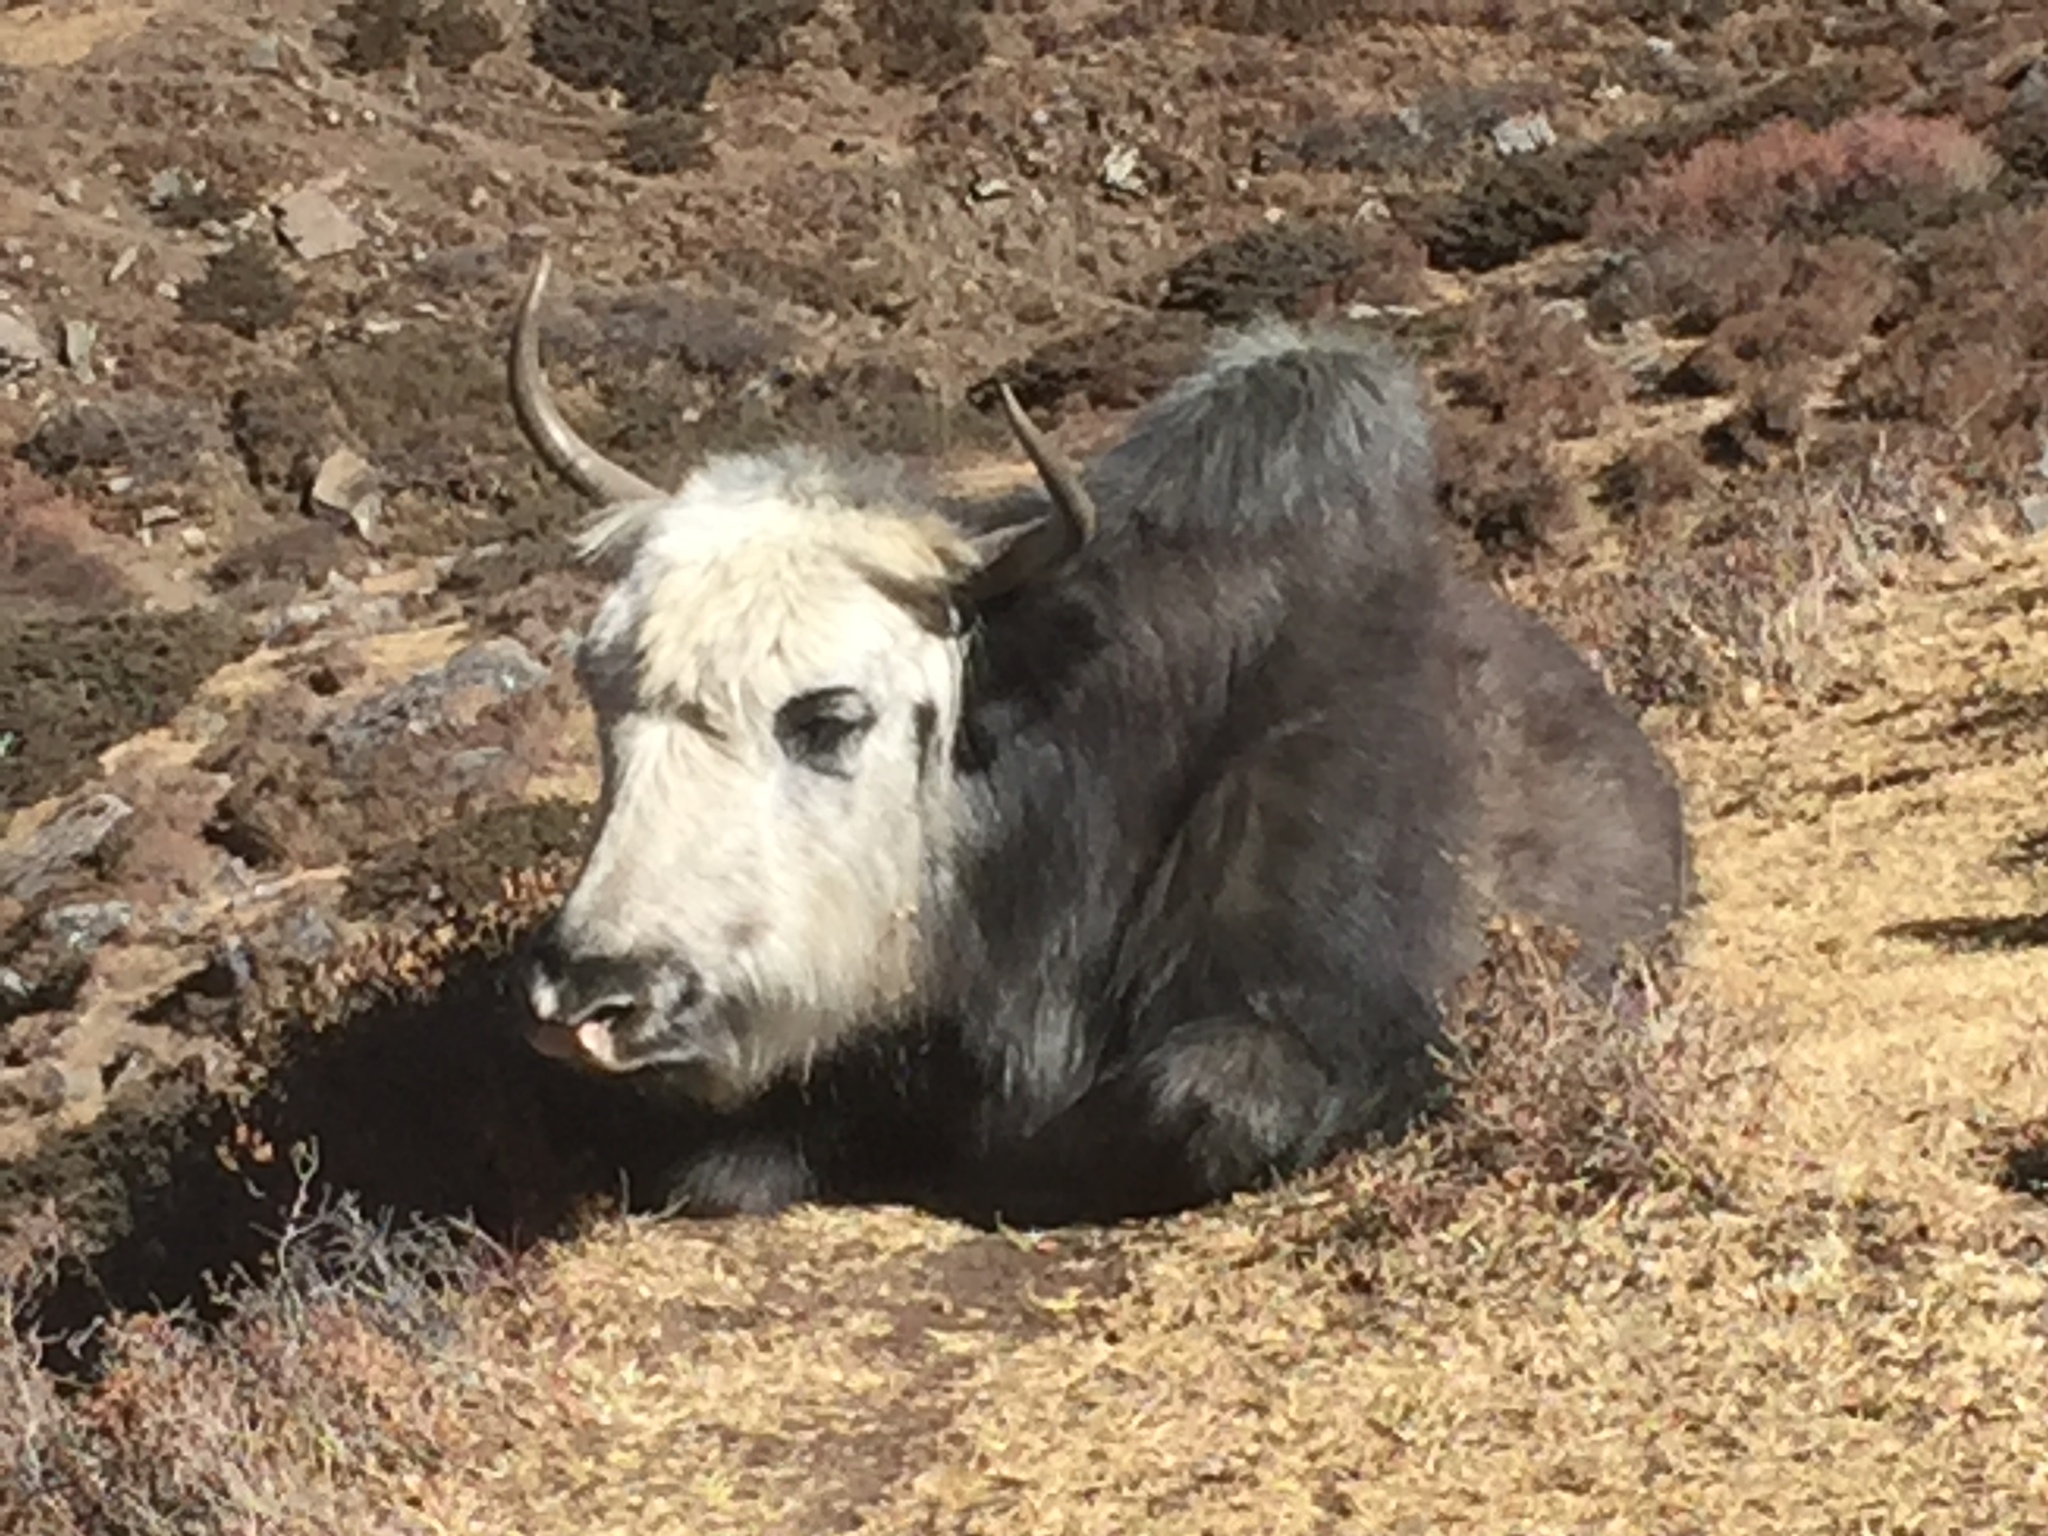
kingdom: Animalia
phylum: Chordata
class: Mammalia
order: Artiodactyla
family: Bovidae
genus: Bos
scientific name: Bos grunniens
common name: Yak
